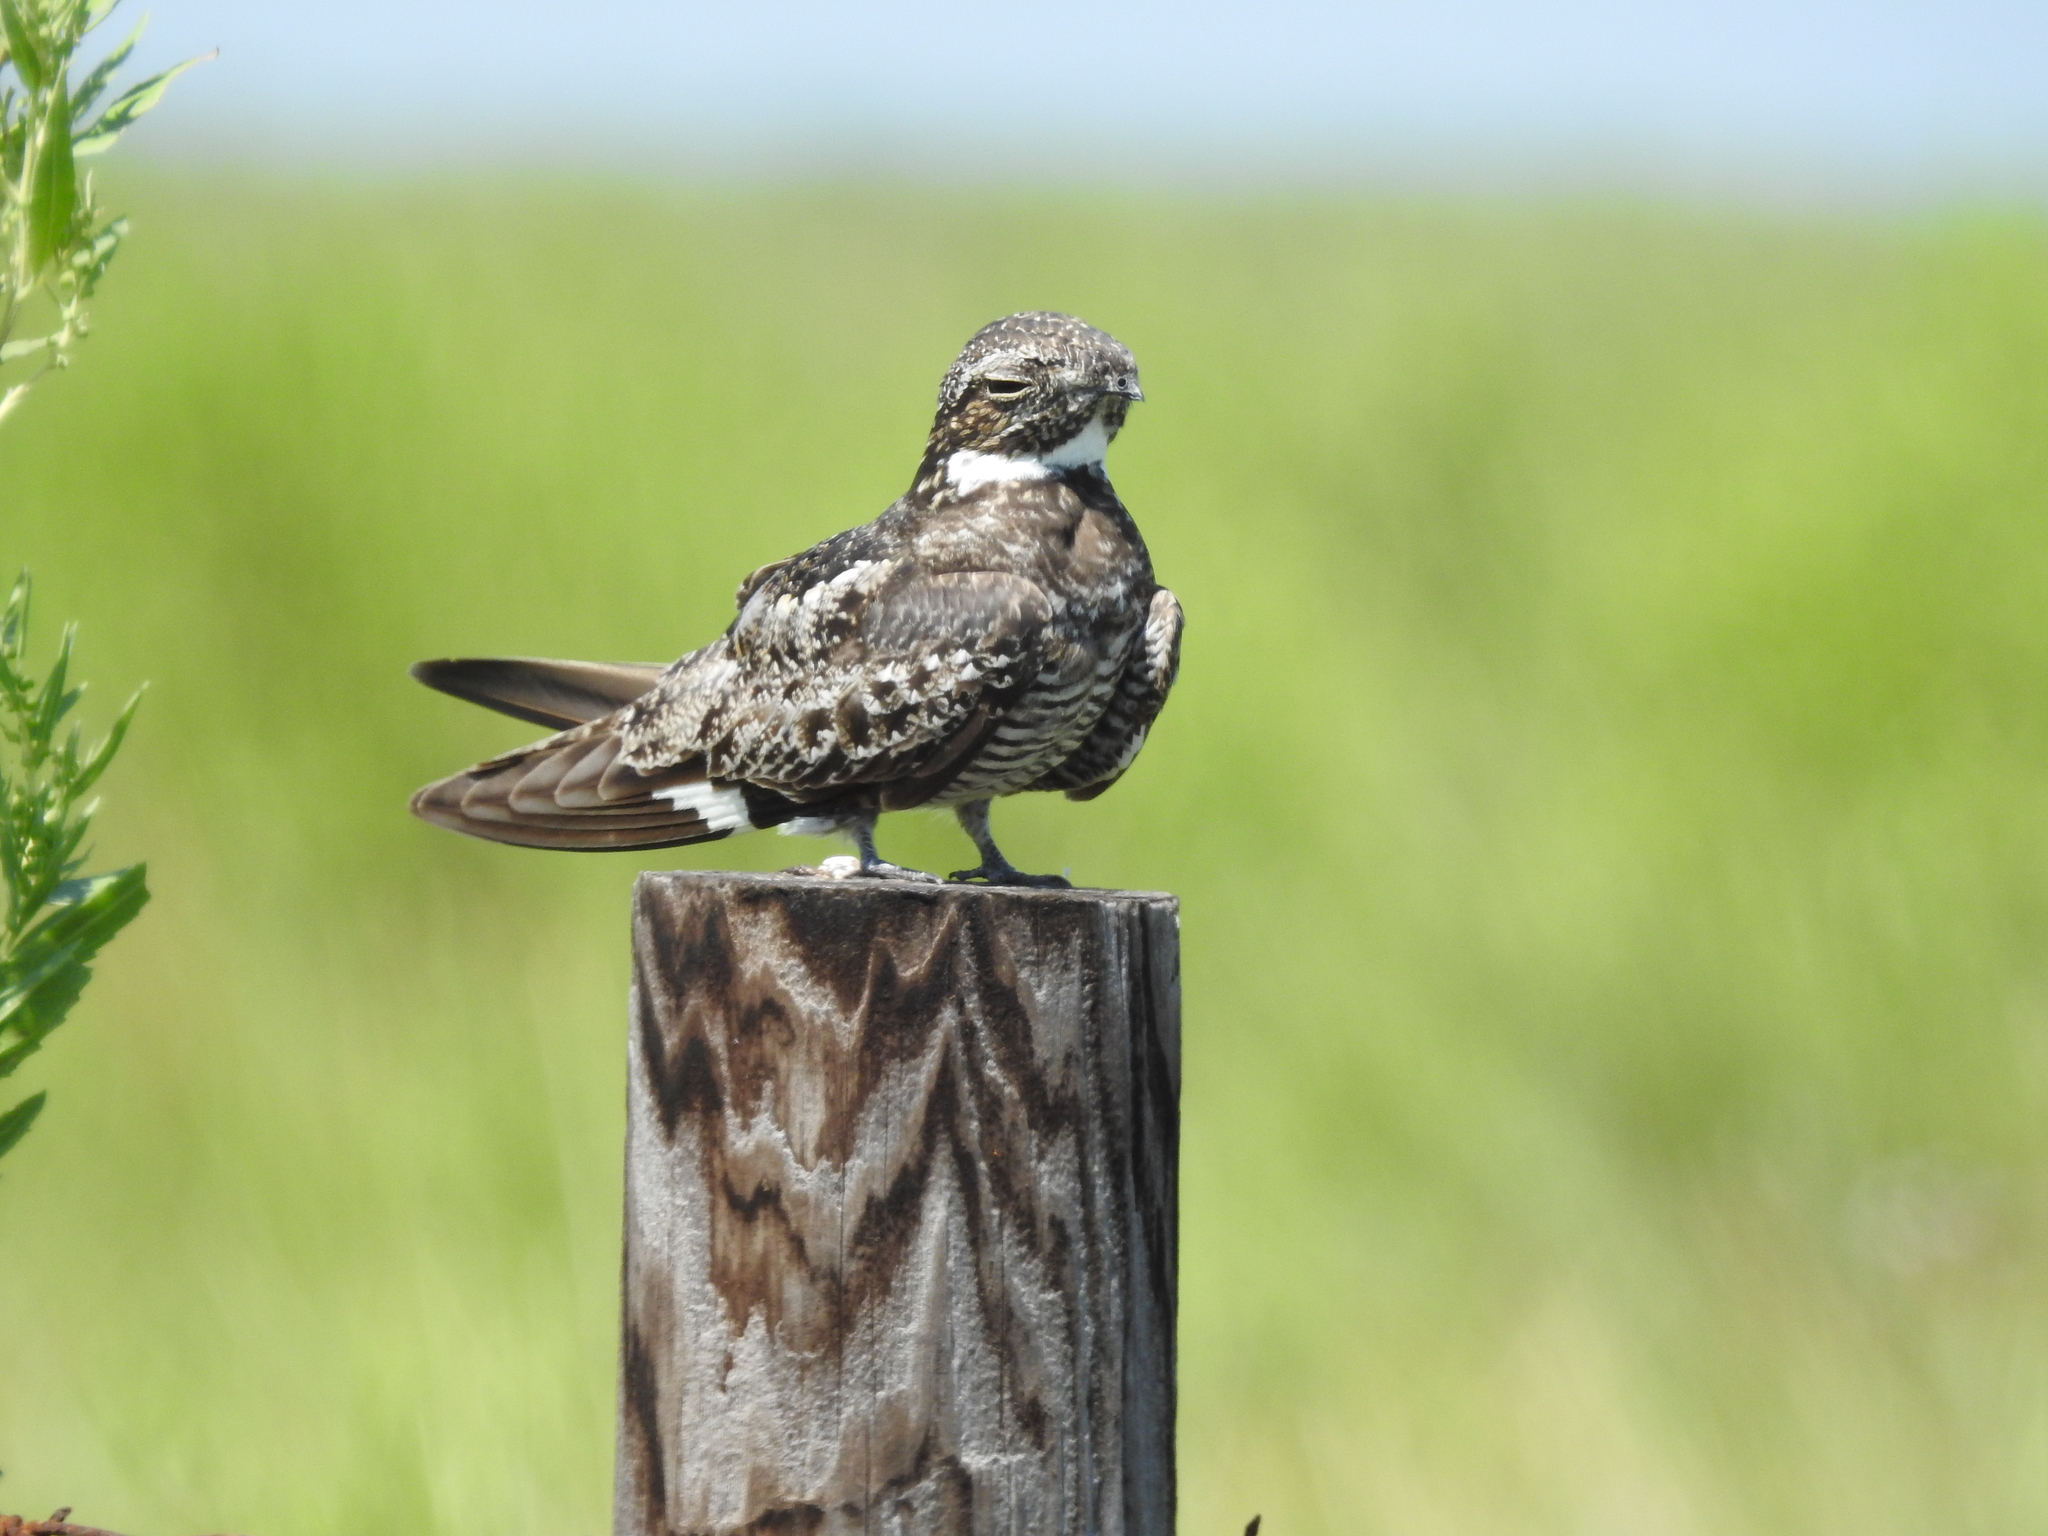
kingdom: Animalia
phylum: Chordata
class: Aves
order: Caprimulgiformes
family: Caprimulgidae
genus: Chordeiles
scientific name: Chordeiles minor
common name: Common nighthawk
